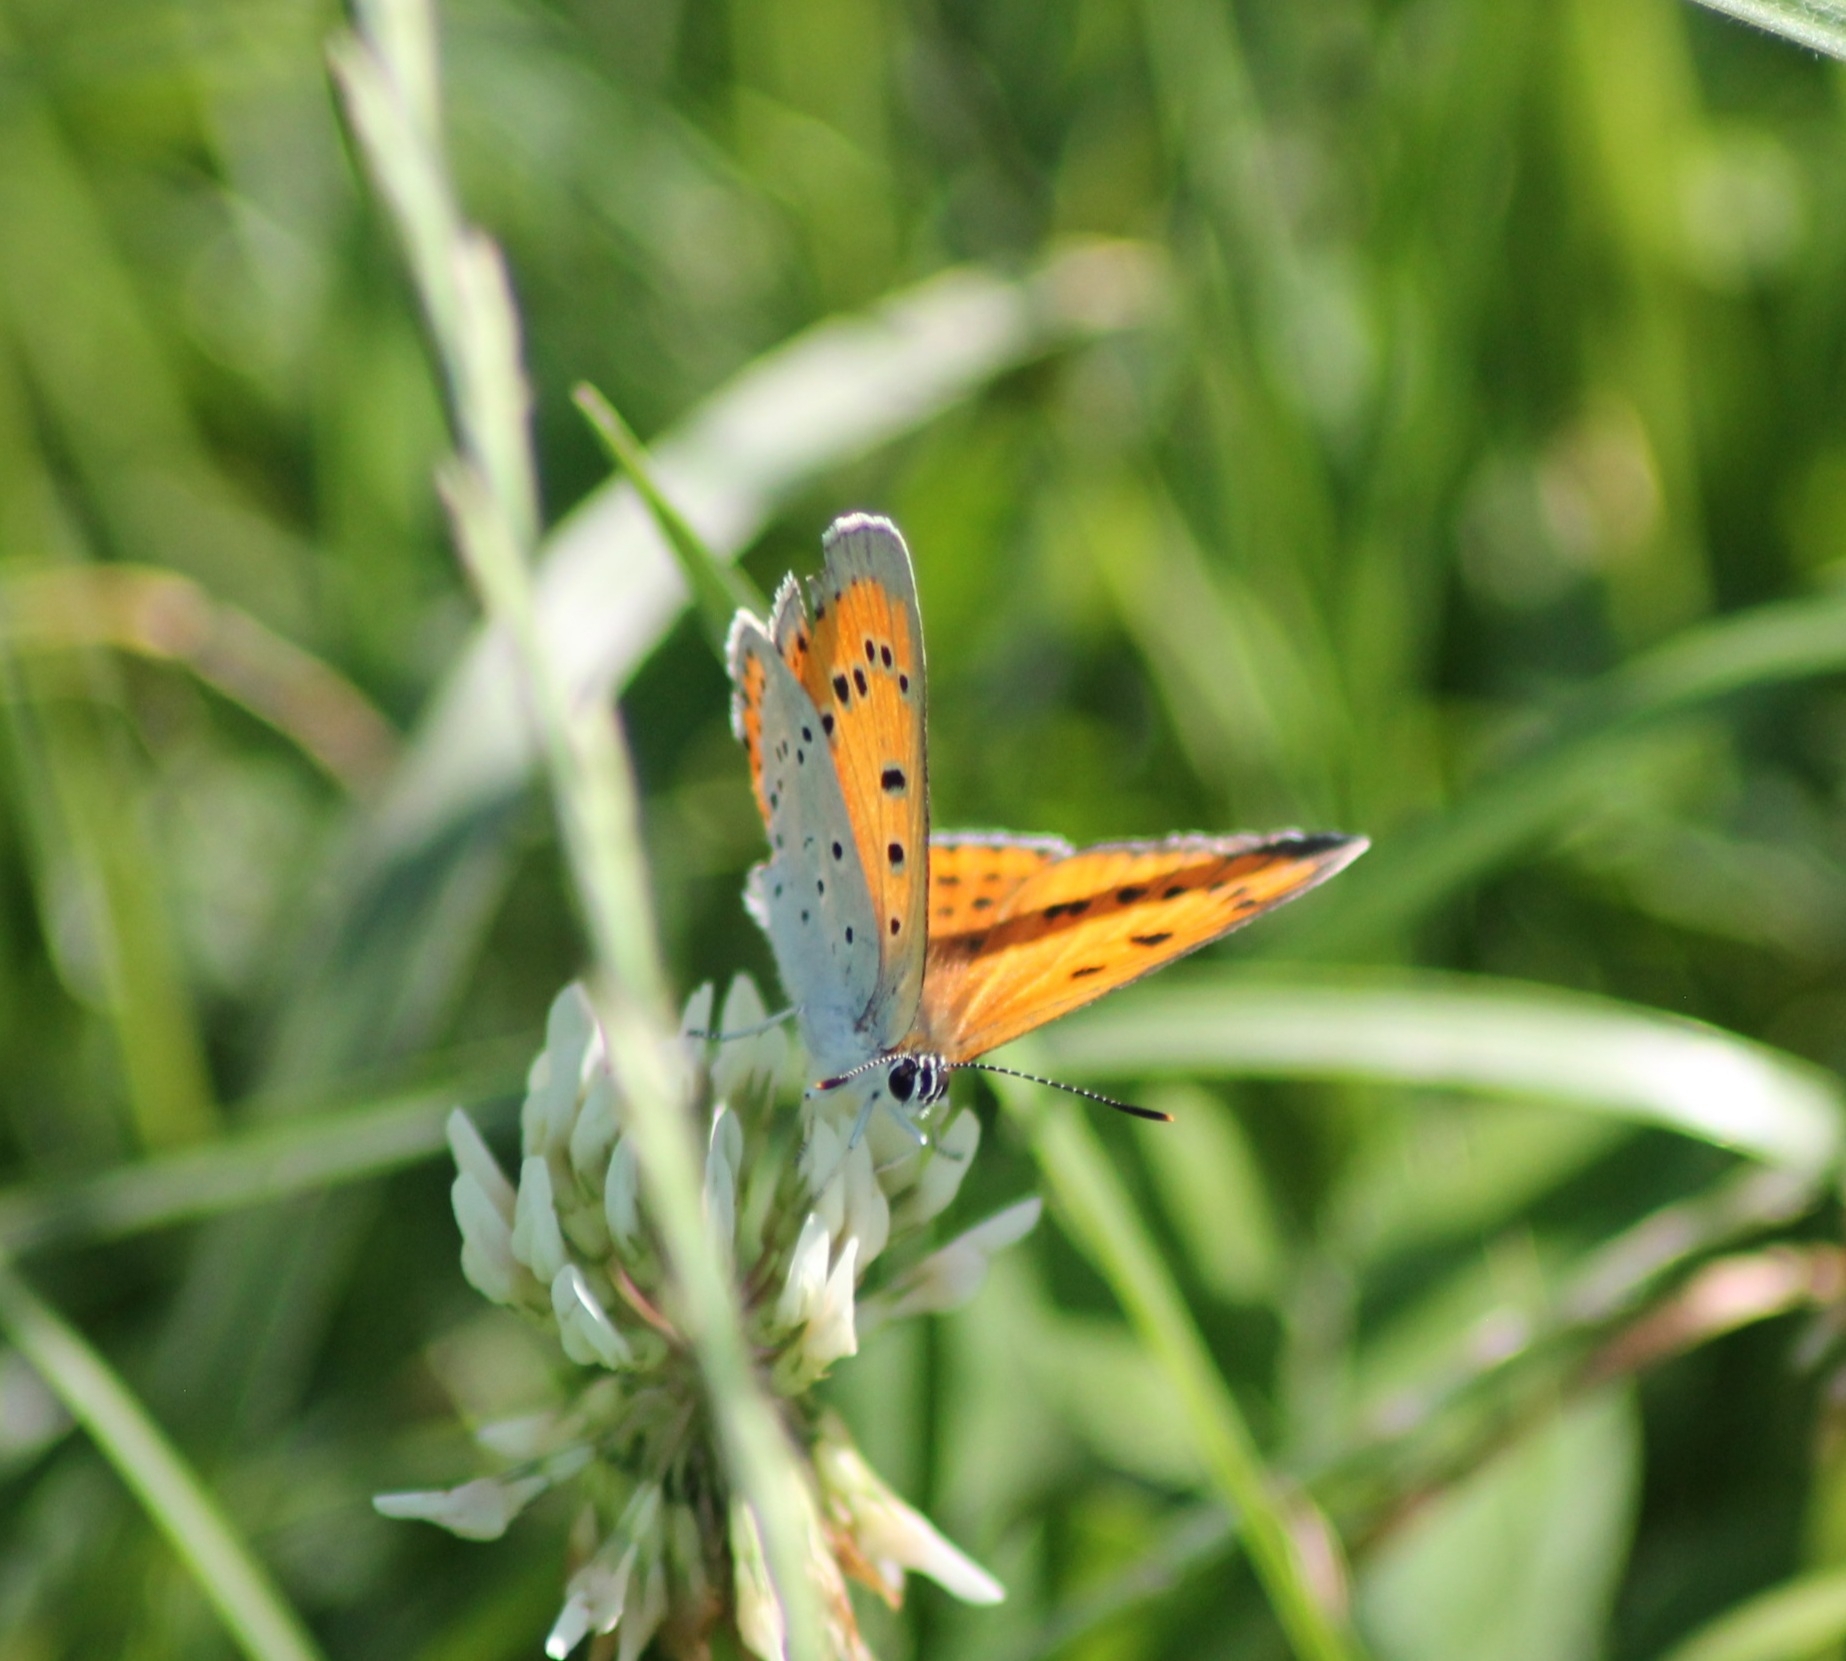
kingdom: Animalia
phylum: Arthropoda
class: Insecta
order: Lepidoptera
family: Lycaenidae
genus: Lycaena
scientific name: Lycaena dispar
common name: Large copper
